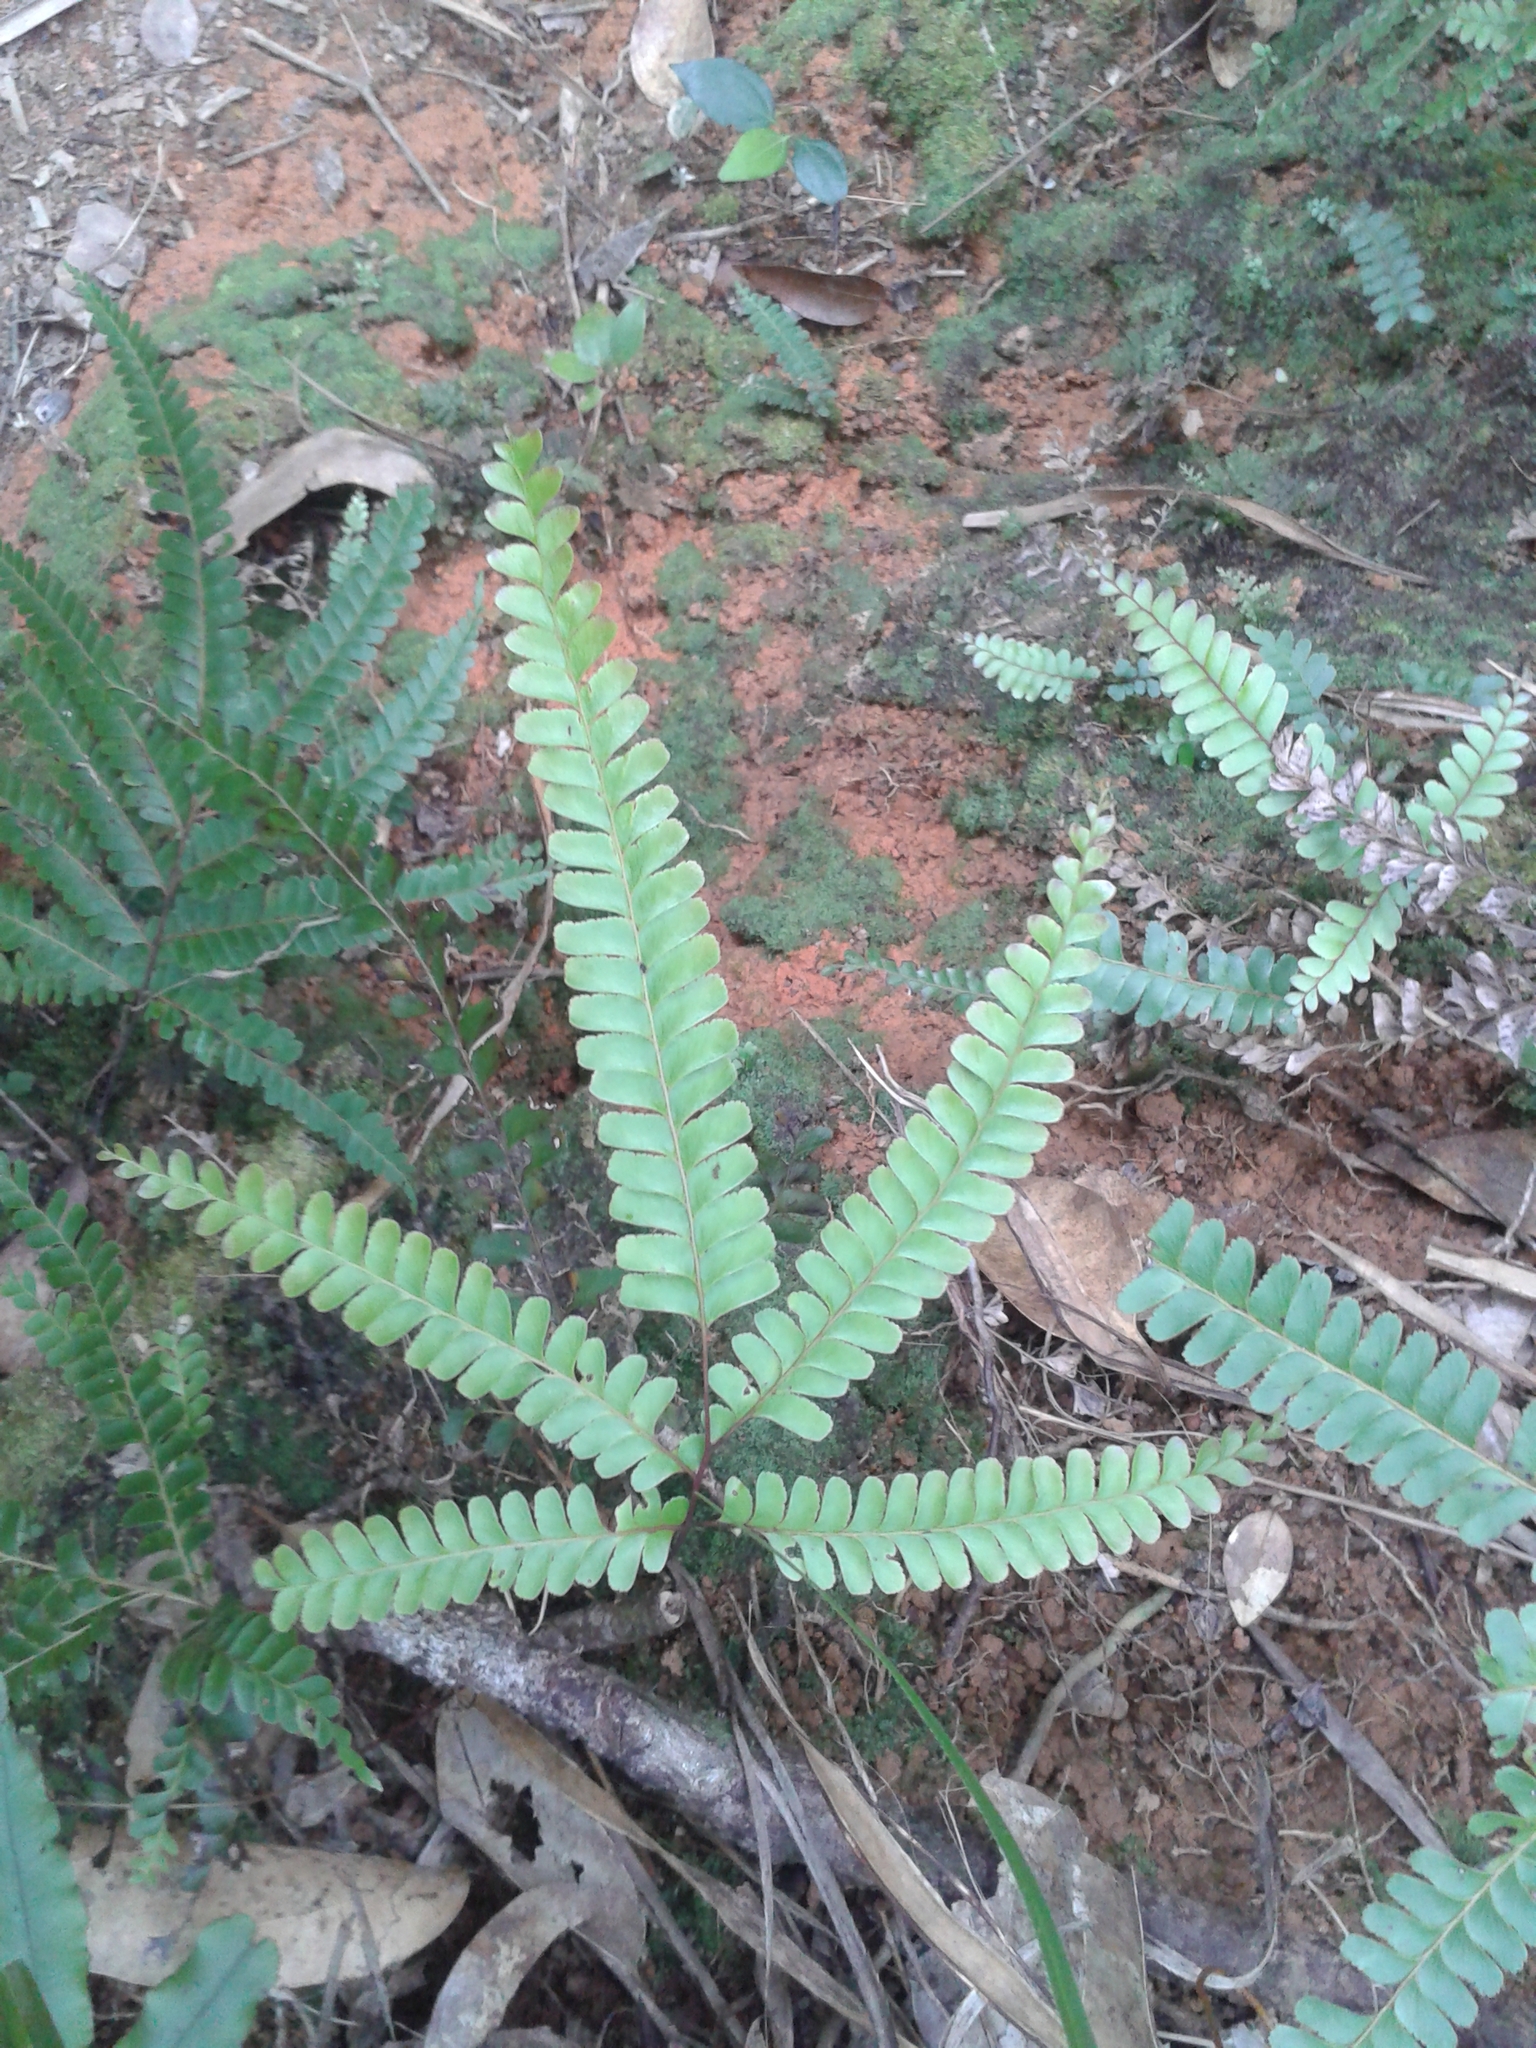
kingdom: Plantae
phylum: Tracheophyta
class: Polypodiopsida
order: Polypodiales
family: Lindsaeaceae
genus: Nesolindsaea
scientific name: Nesolindsaea kirkii
